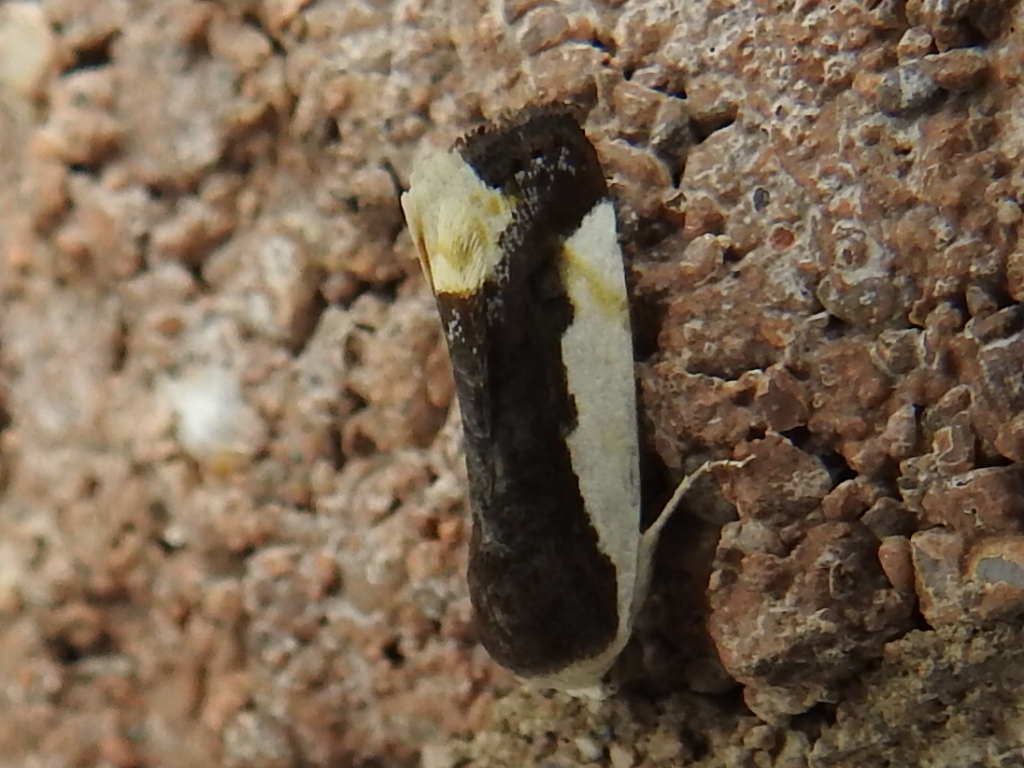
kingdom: Animalia
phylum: Arthropoda
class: Insecta
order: Lepidoptera
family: Noctuidae
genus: Acontia
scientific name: Acontia Tarache expolita
